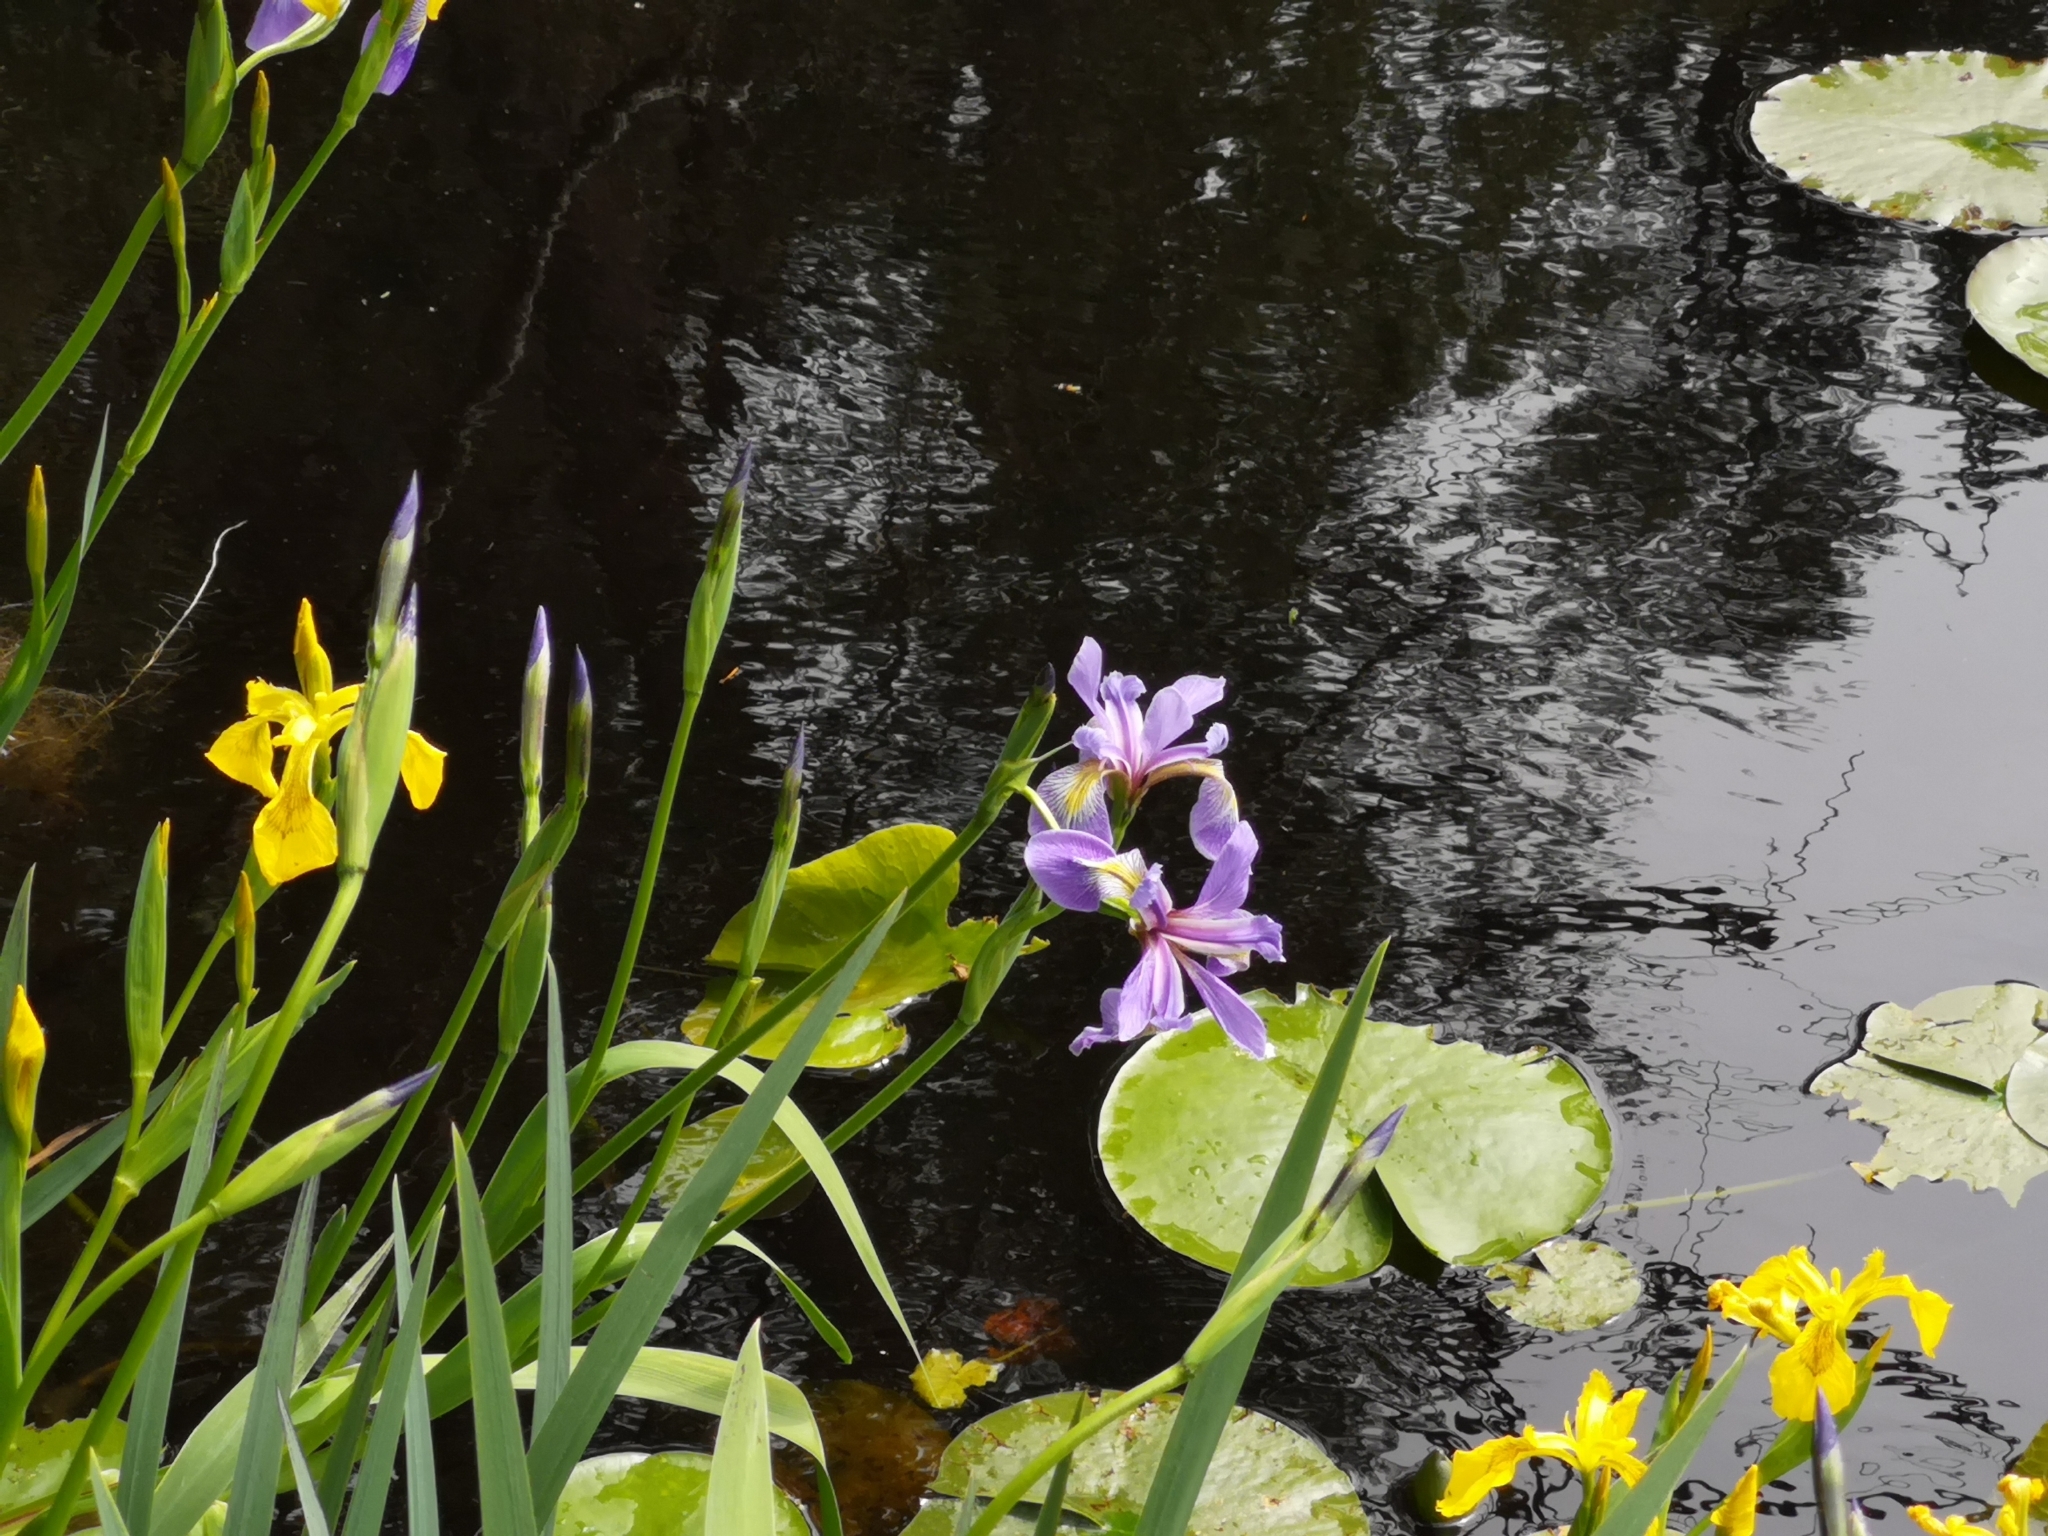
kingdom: Plantae
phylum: Tracheophyta
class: Liliopsida
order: Asparagales
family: Iridaceae
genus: Iris
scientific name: Iris versicolor
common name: Purple iris
